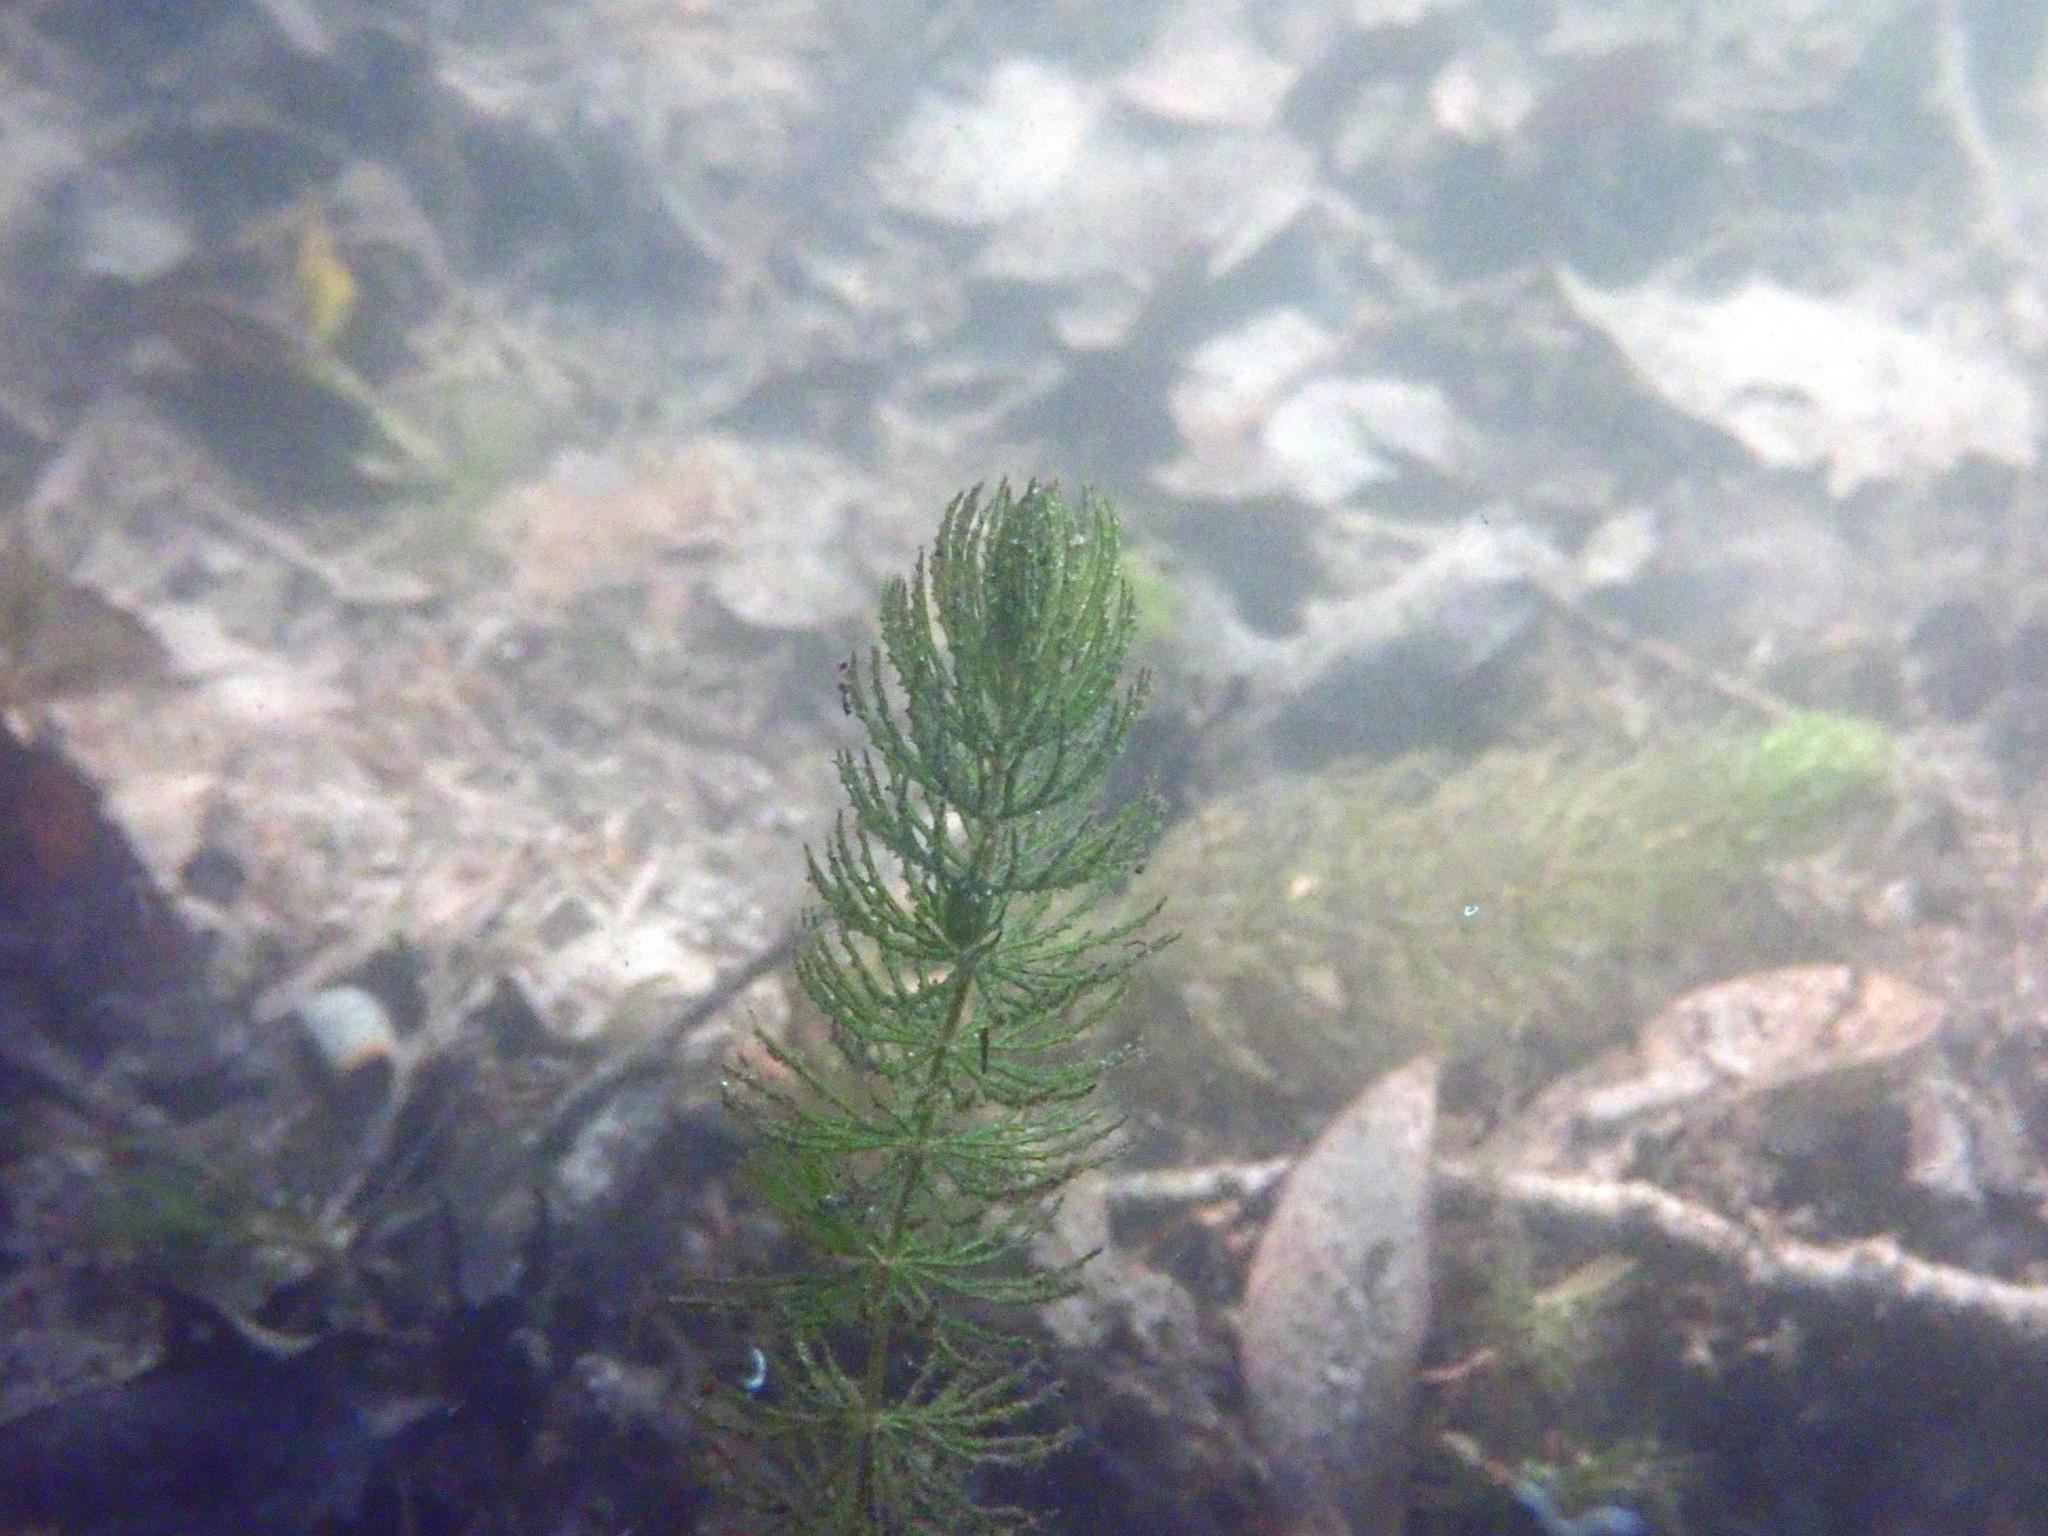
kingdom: Plantae
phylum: Tracheophyta
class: Magnoliopsida
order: Ceratophyllales
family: Ceratophyllaceae
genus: Ceratophyllum
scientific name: Ceratophyllum demersum
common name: Rigid hornwort
